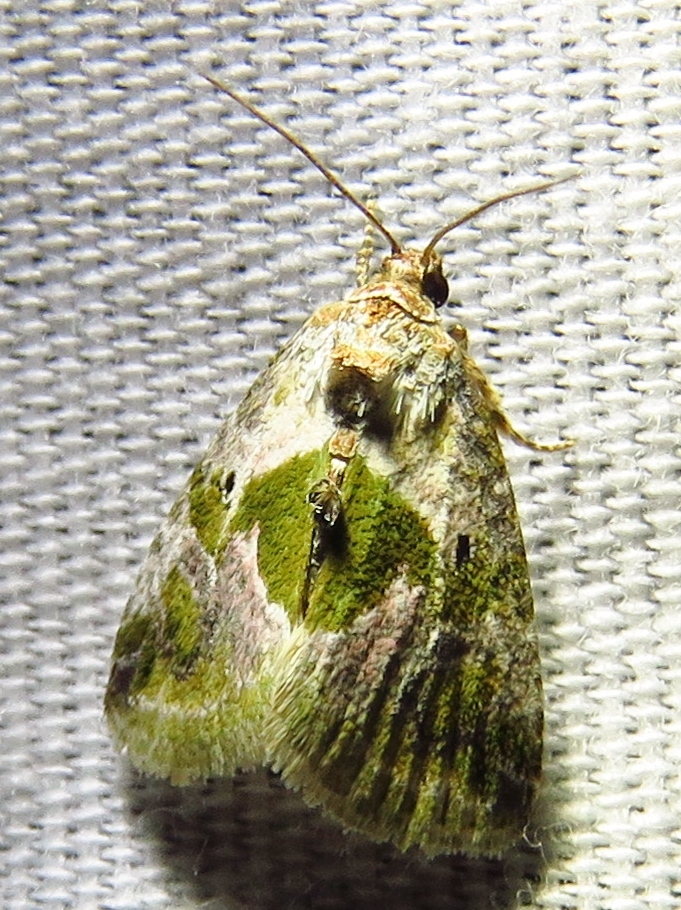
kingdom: Animalia
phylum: Arthropoda
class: Insecta
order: Lepidoptera
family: Noctuidae
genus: Maliattha
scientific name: Maliattha synochitis
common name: Black-dotted glyph
